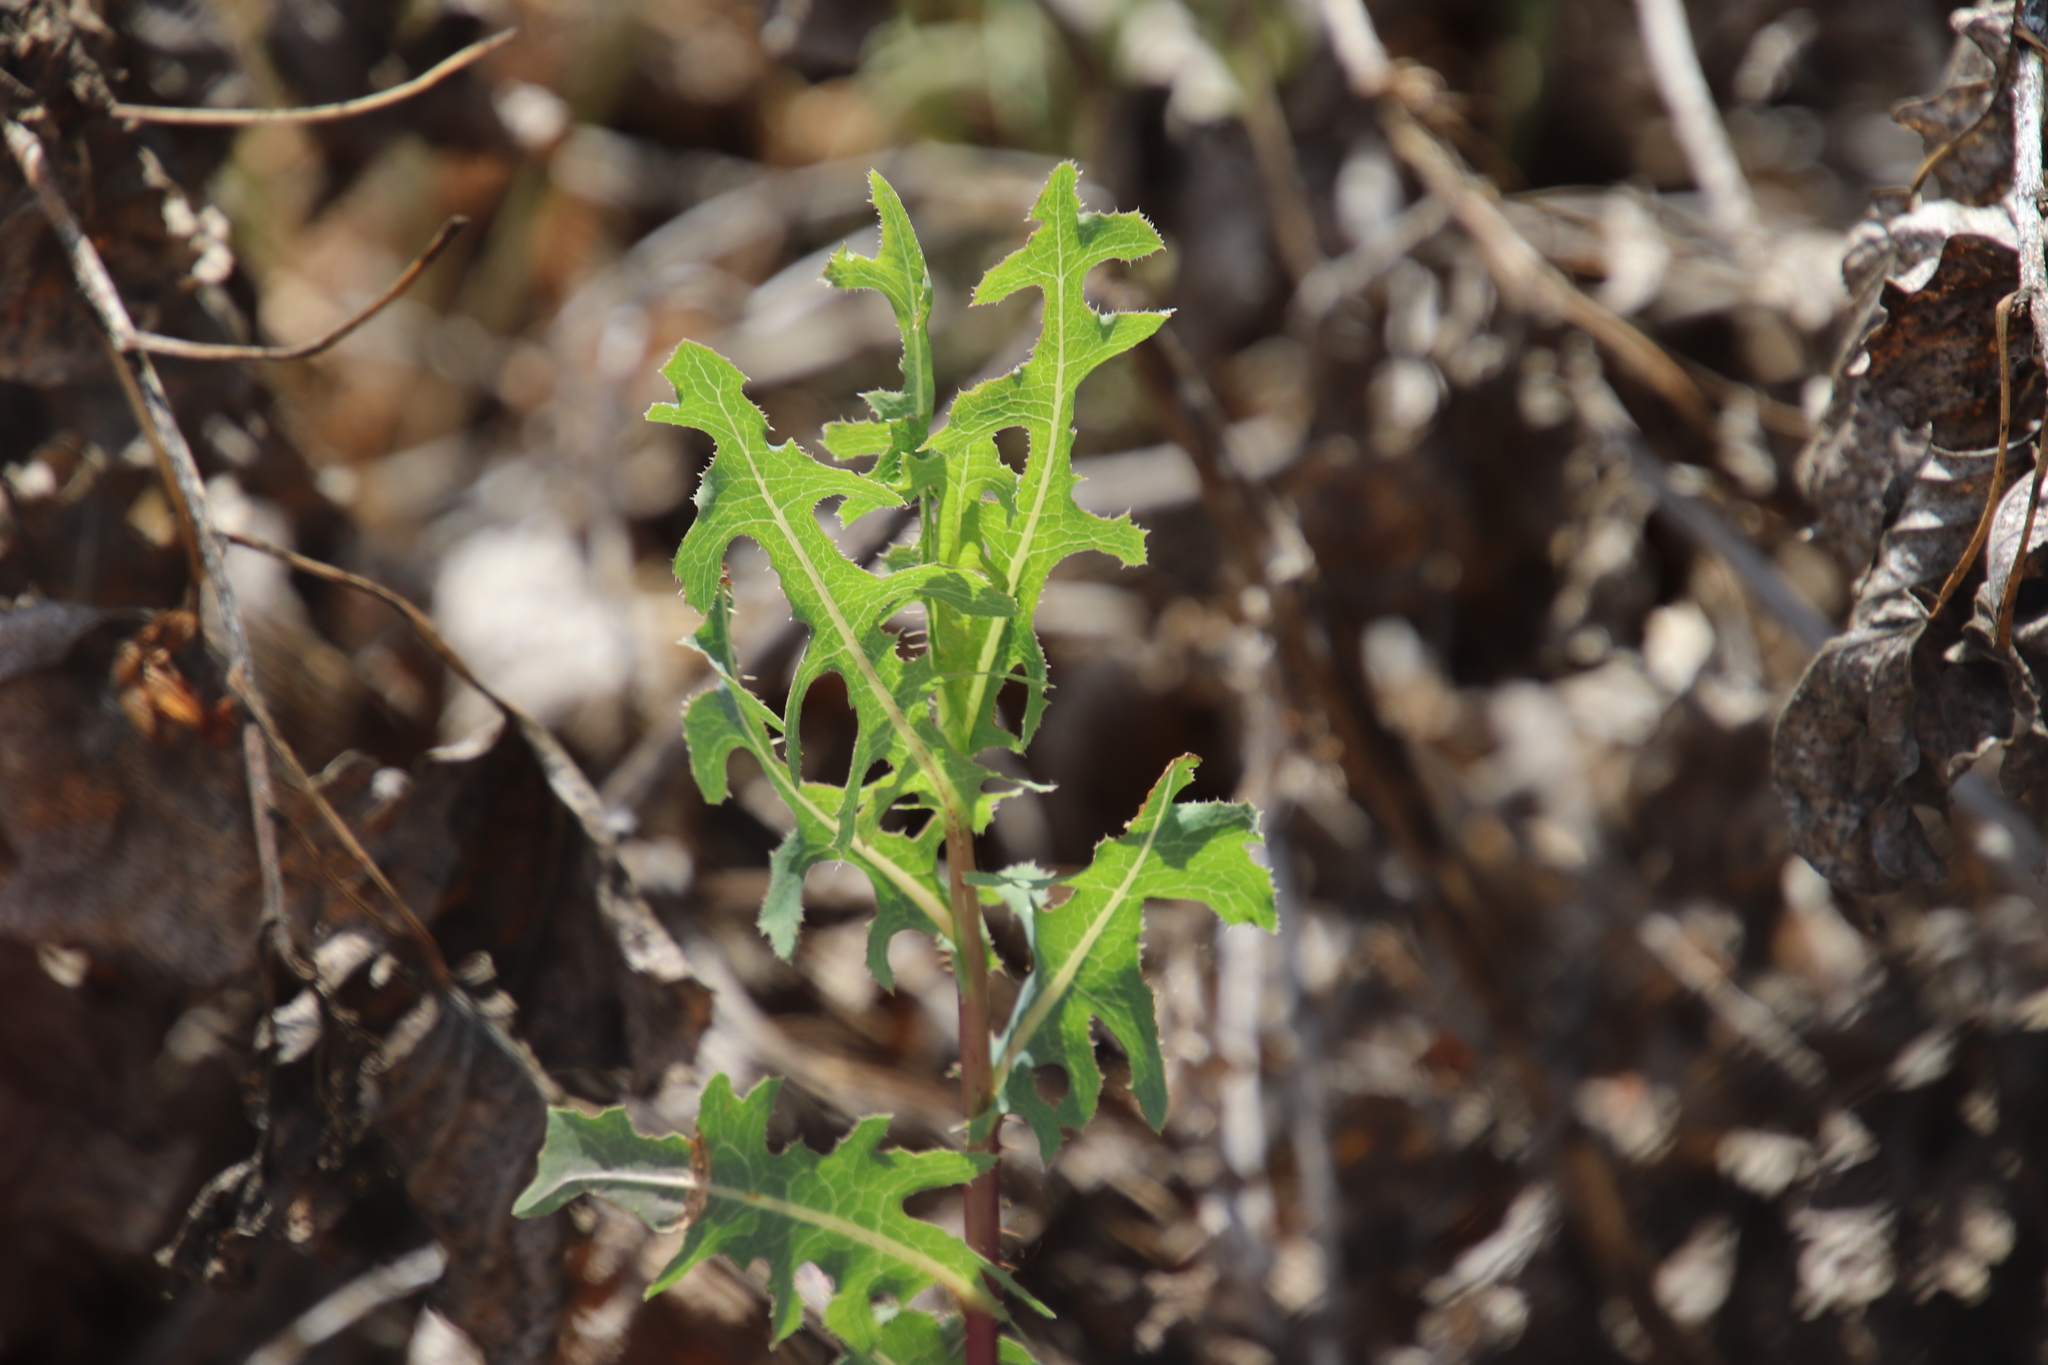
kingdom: Plantae
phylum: Tracheophyta
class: Magnoliopsida
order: Asterales
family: Asteraceae
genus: Lactuca
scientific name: Lactuca serriola
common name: Prickly lettuce
